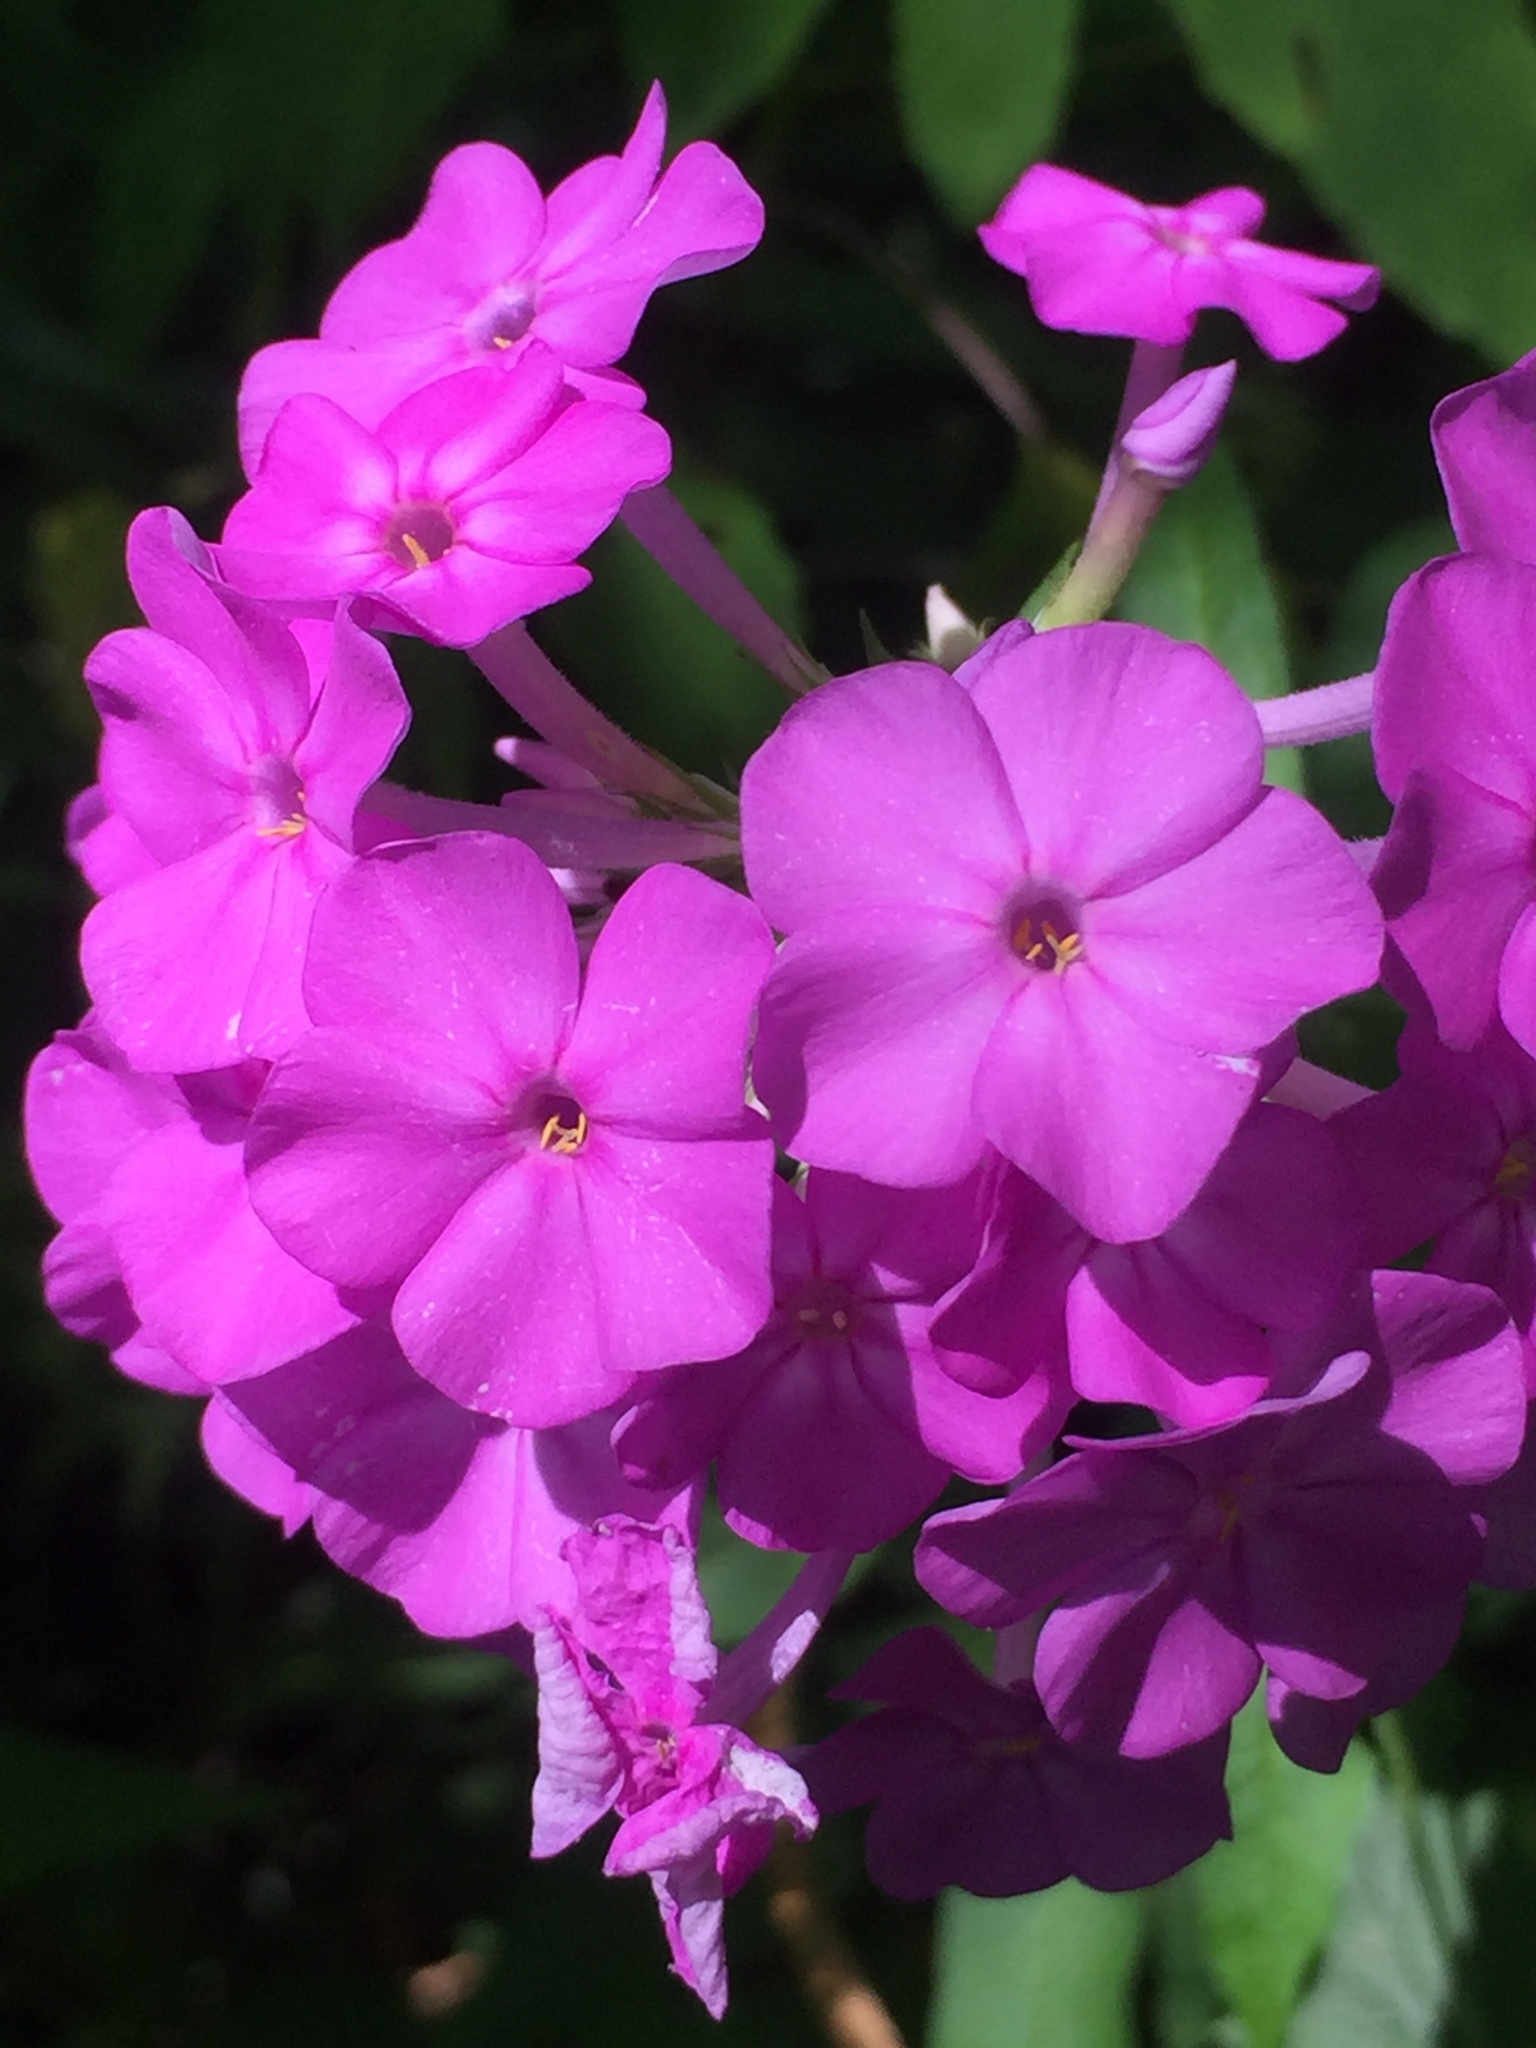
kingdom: Plantae
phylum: Tracheophyta
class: Magnoliopsida
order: Ericales
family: Polemoniaceae
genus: Phlox
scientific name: Phlox paniculata
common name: Fall phlox
